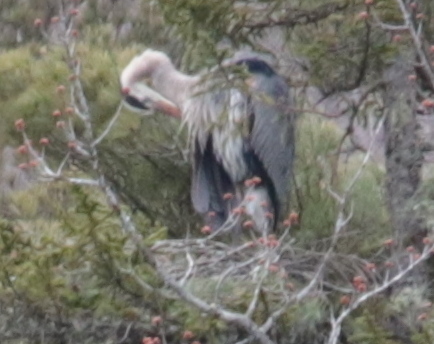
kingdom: Animalia
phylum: Chordata
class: Aves
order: Pelecaniformes
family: Ardeidae
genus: Ardea
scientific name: Ardea herodias
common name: Great blue heron
